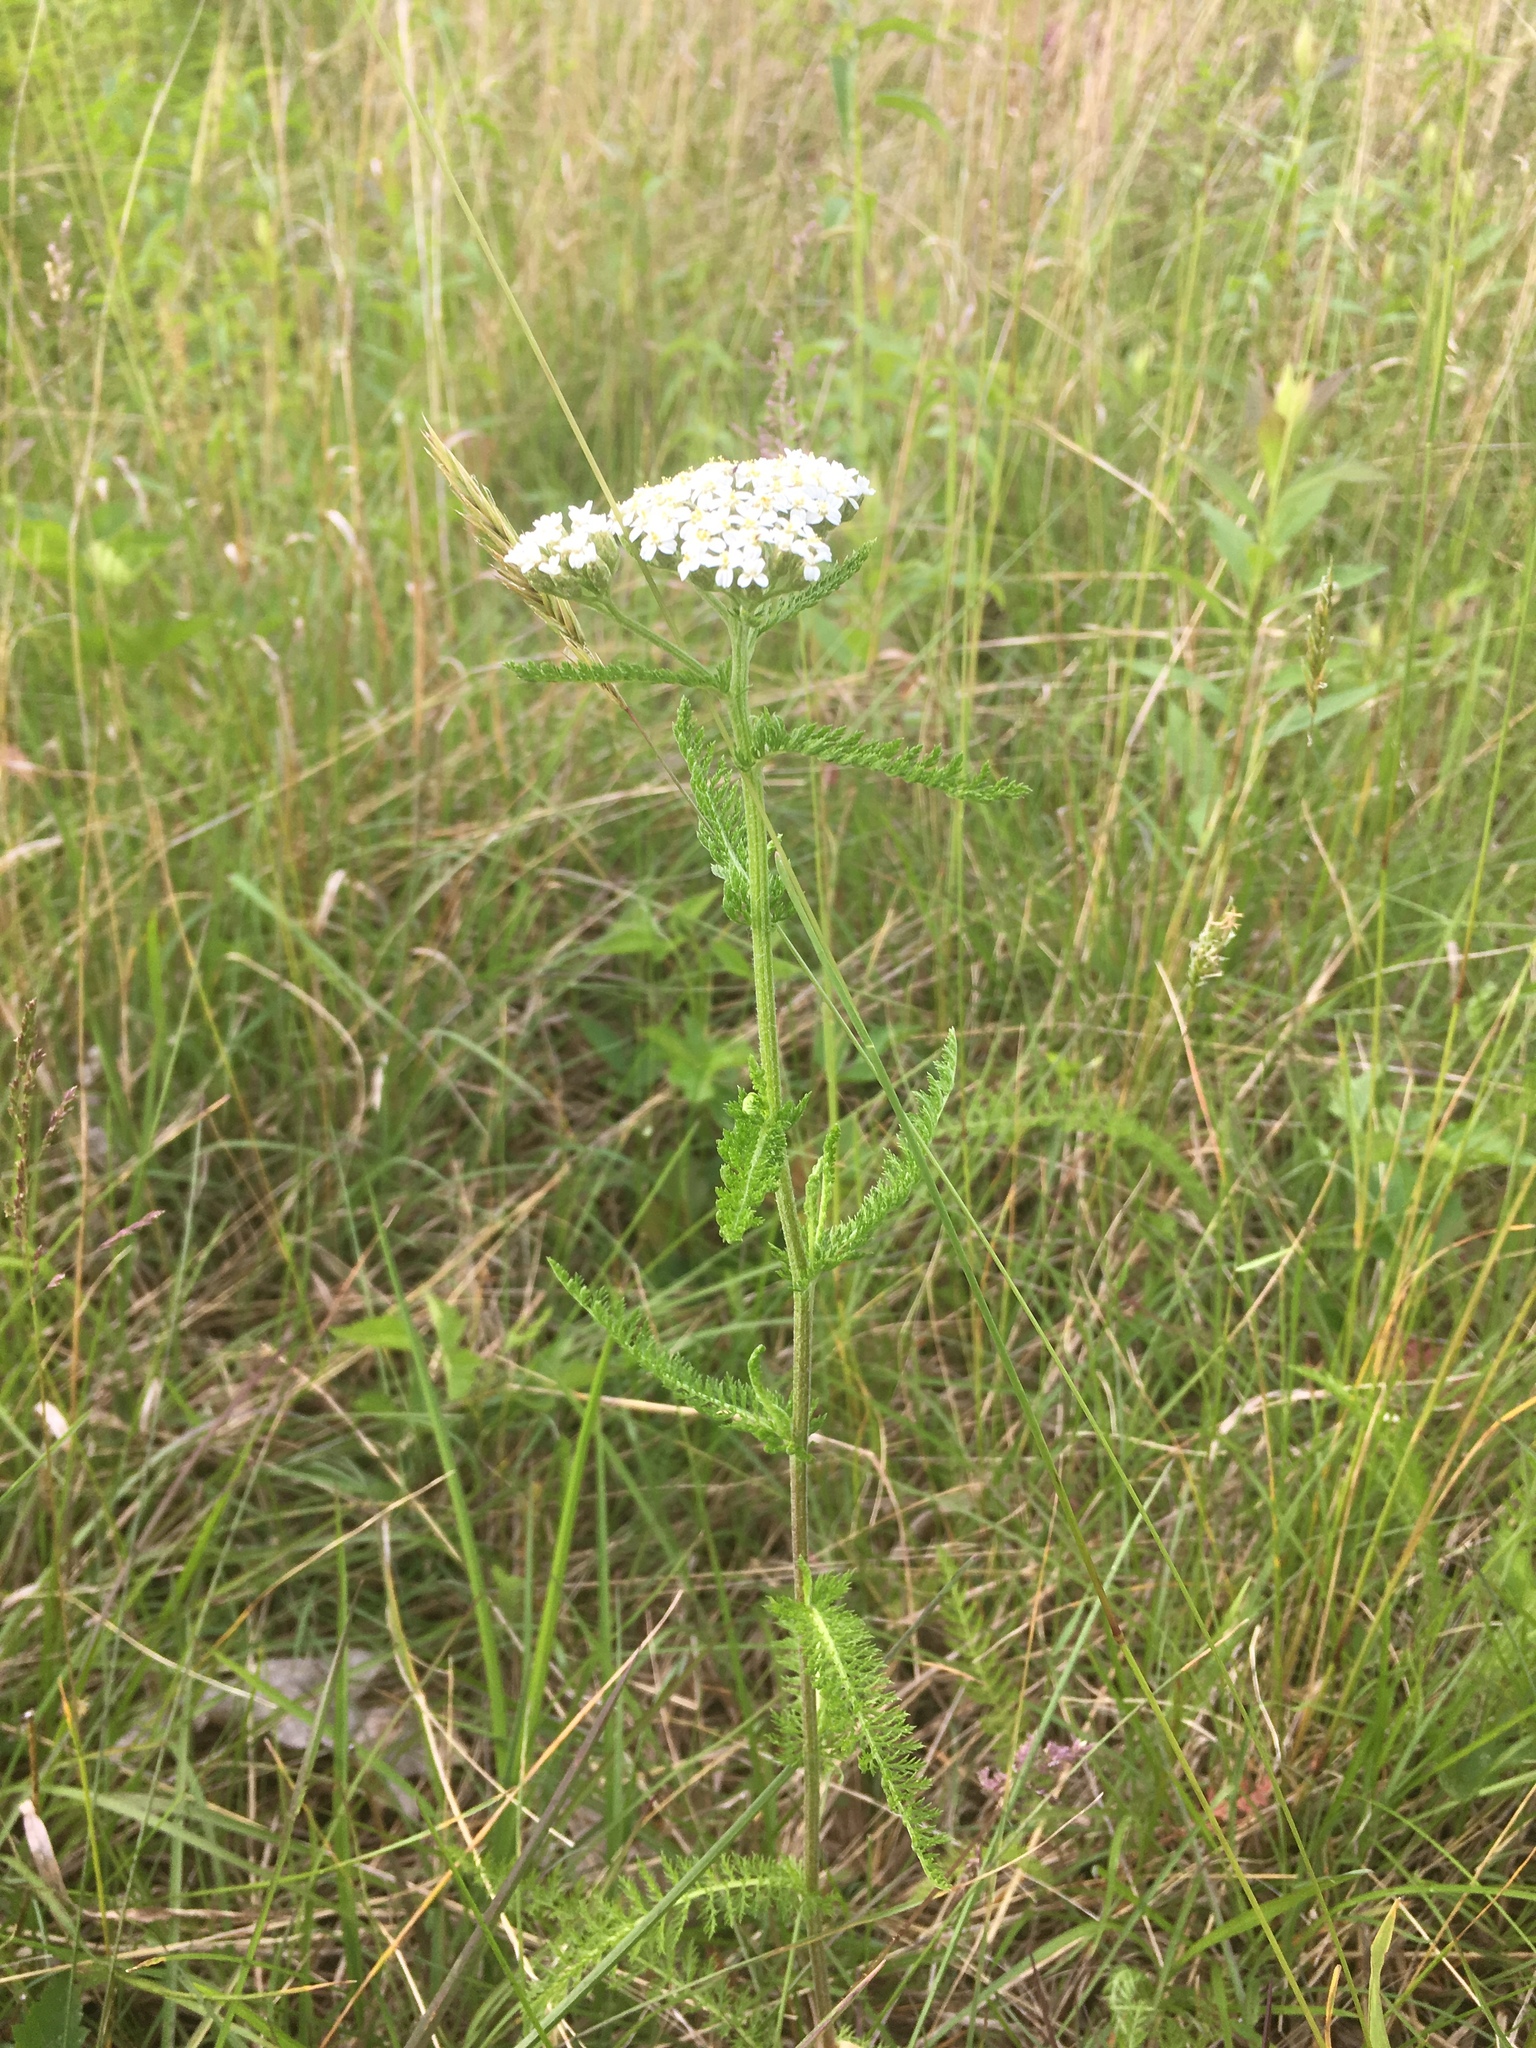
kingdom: Plantae
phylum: Tracheophyta
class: Magnoliopsida
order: Asterales
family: Asteraceae
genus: Achillea
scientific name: Achillea millefolium
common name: Yarrow
